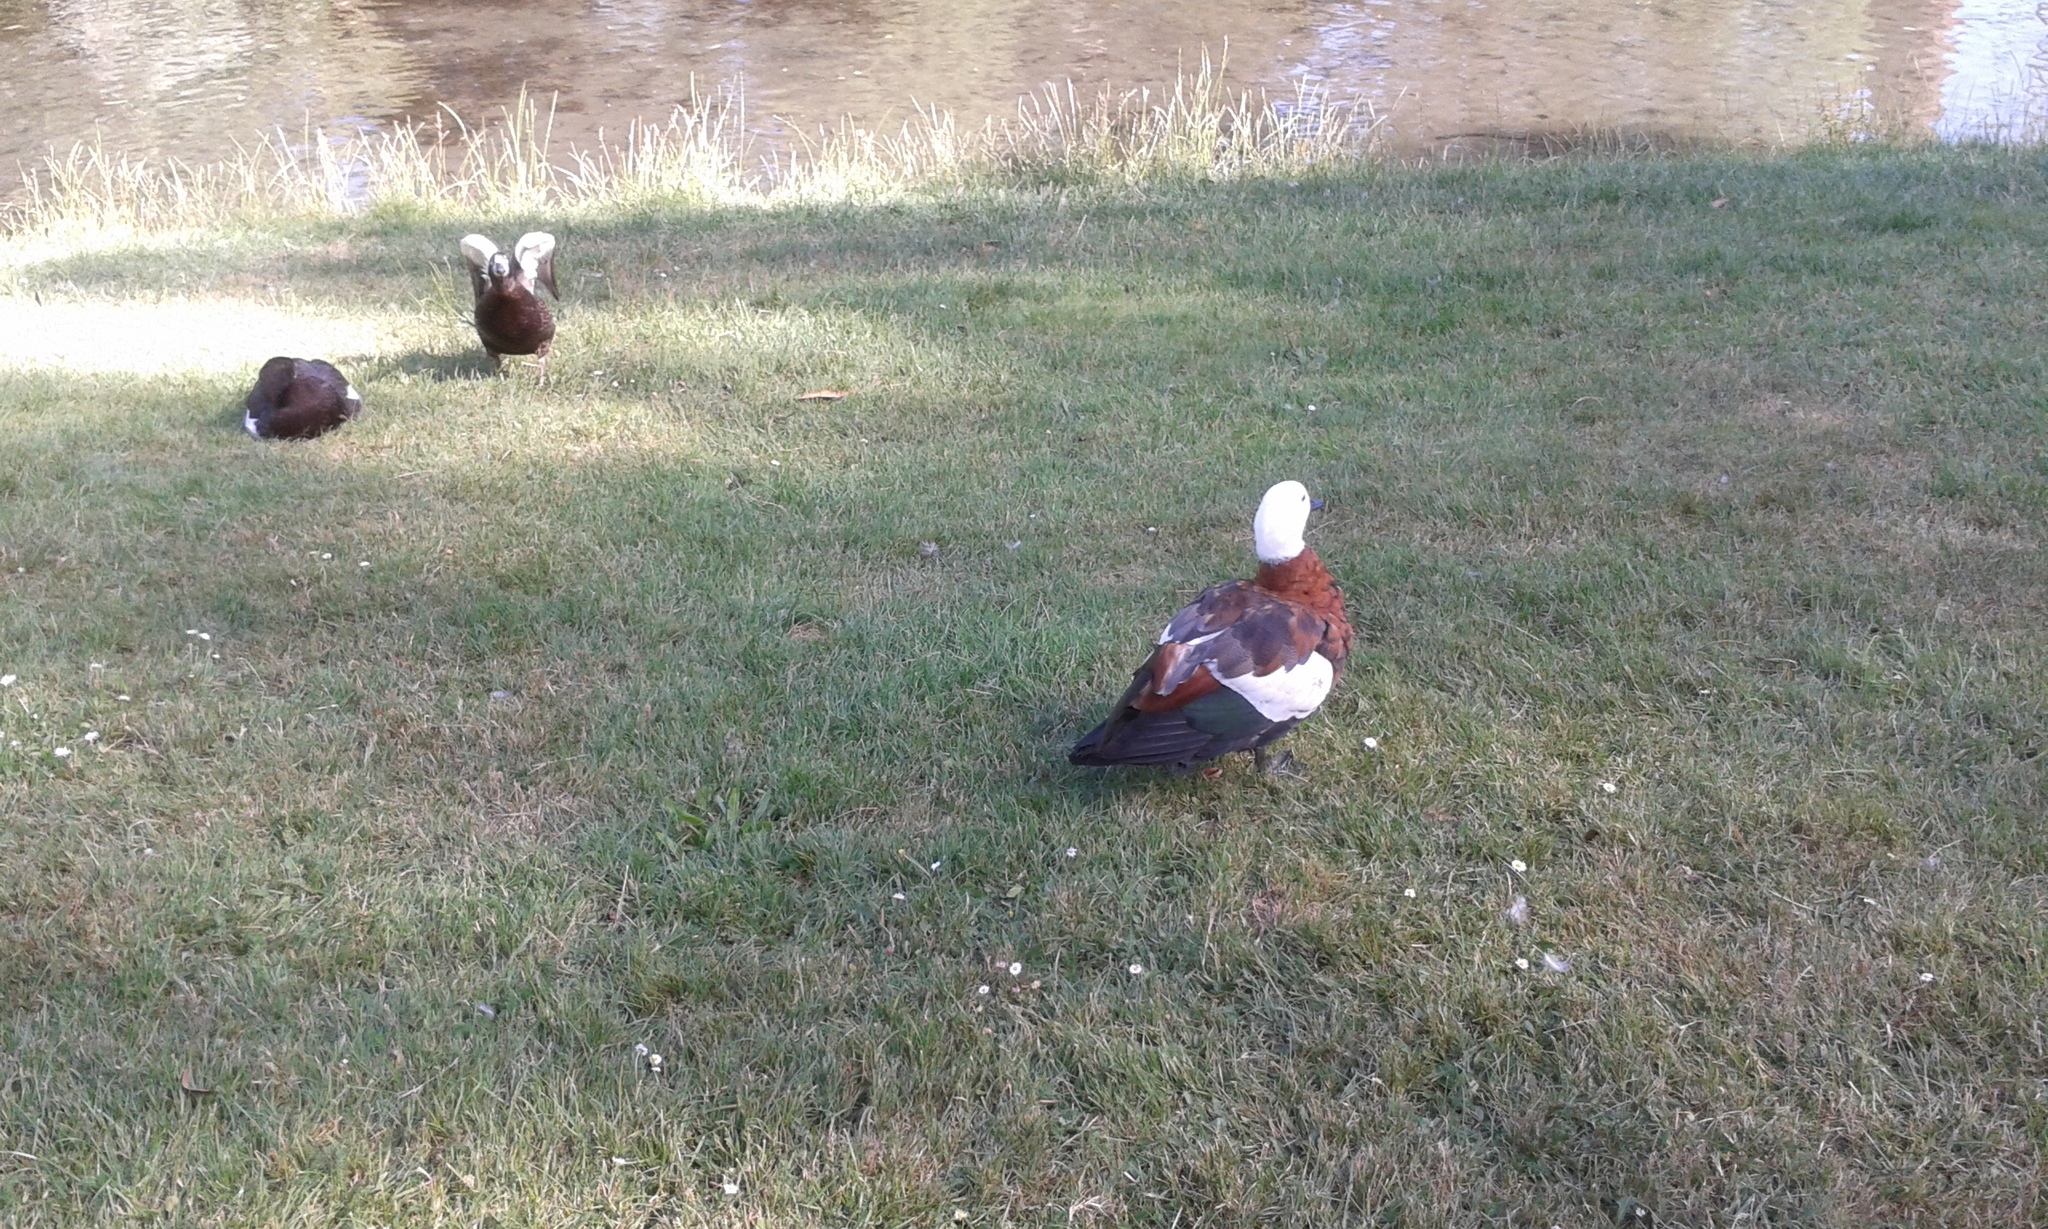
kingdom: Animalia
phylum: Chordata
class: Aves
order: Anseriformes
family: Anatidae
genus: Tadorna
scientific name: Tadorna variegata
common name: Paradise shelduck
